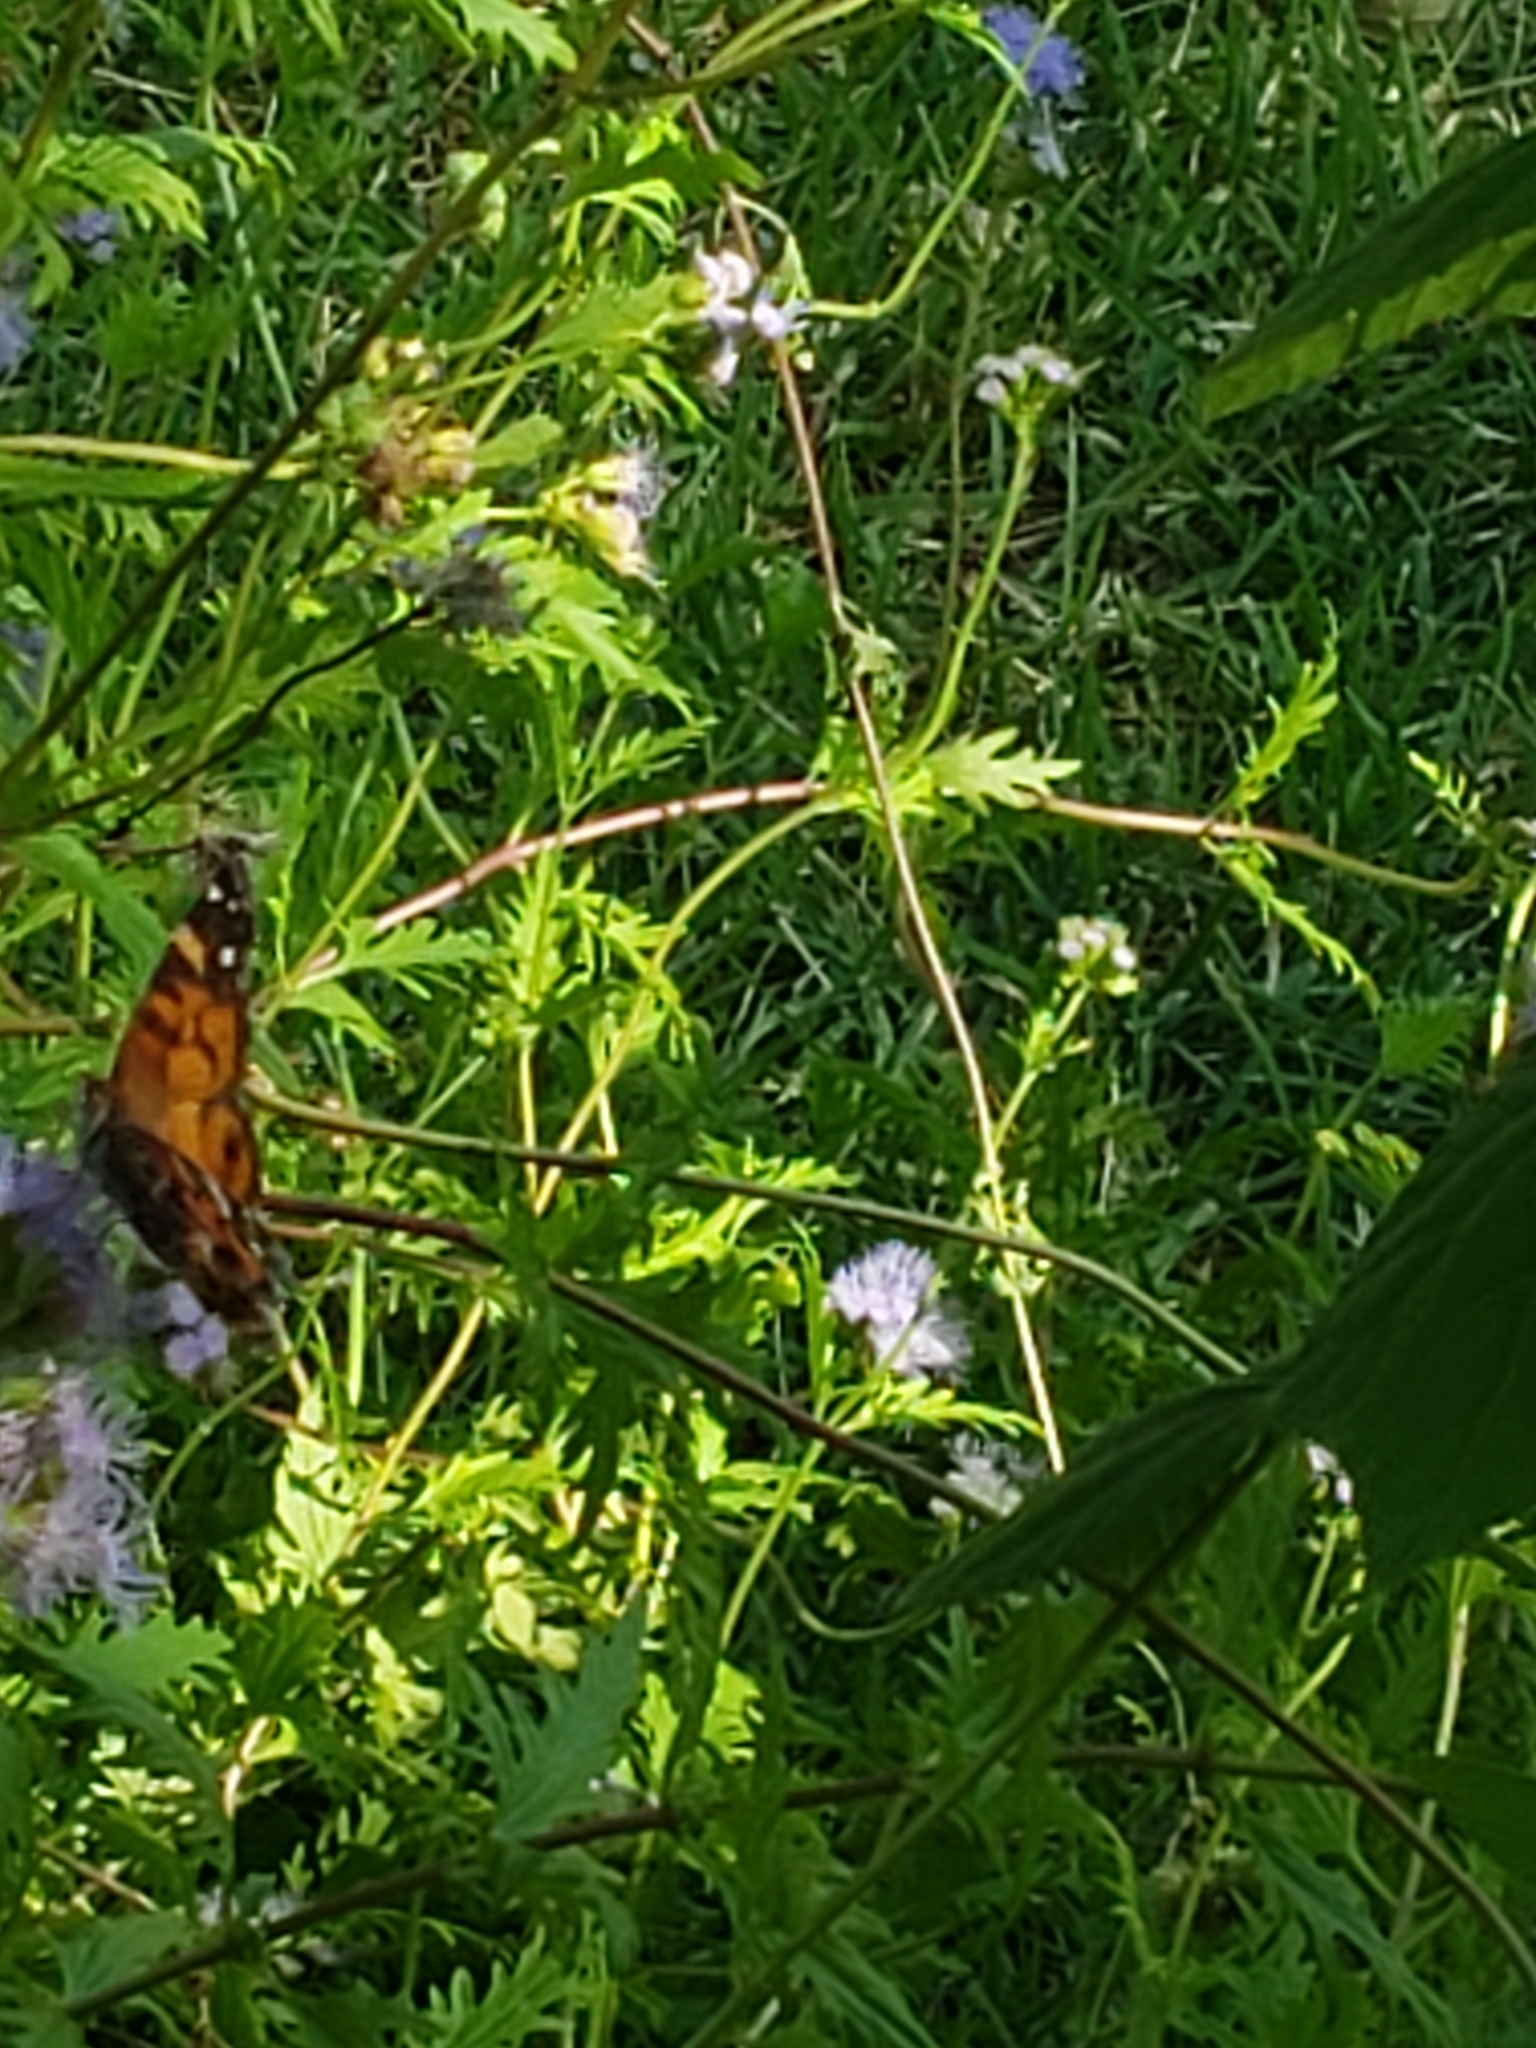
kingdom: Animalia
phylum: Arthropoda
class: Insecta
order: Lepidoptera
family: Nymphalidae
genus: Vanessa
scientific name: Vanessa virginiensis
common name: American lady
